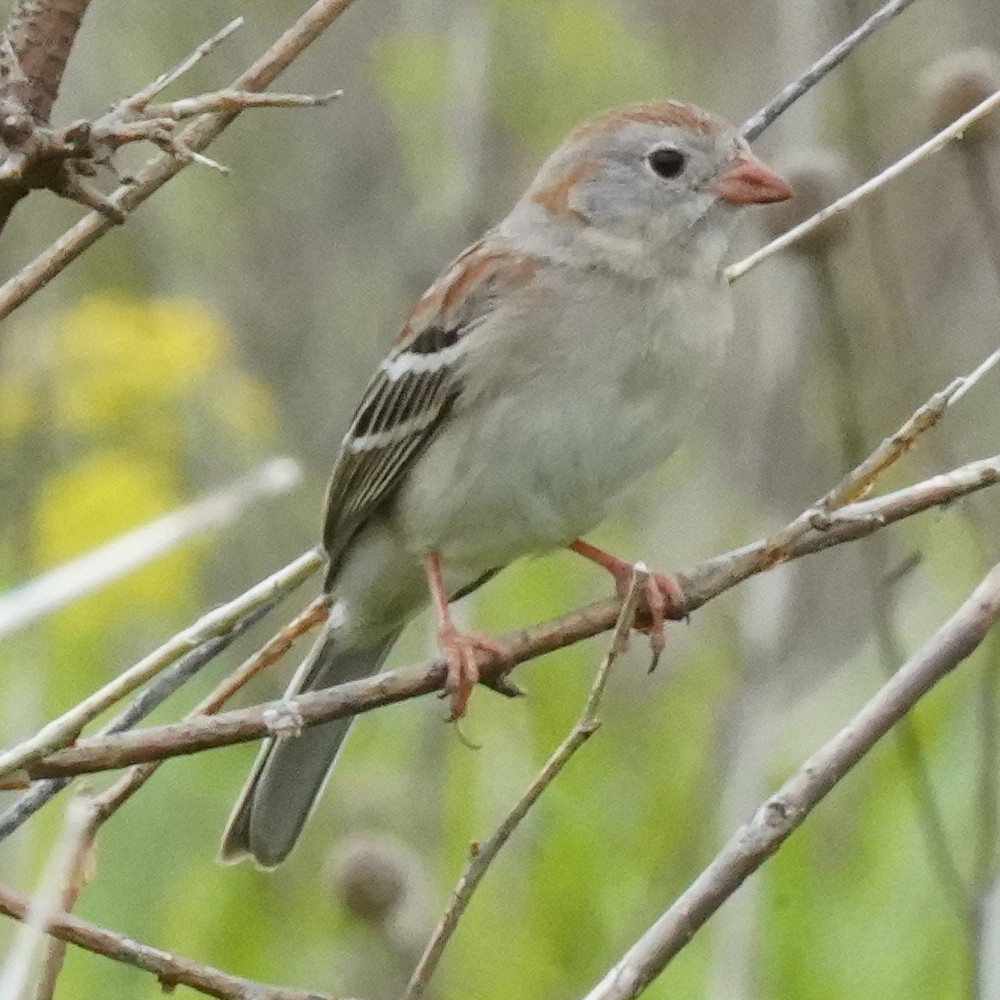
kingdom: Animalia
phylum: Chordata
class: Aves
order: Passeriformes
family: Passerellidae
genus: Spizella
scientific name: Spizella pusilla
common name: Field sparrow
